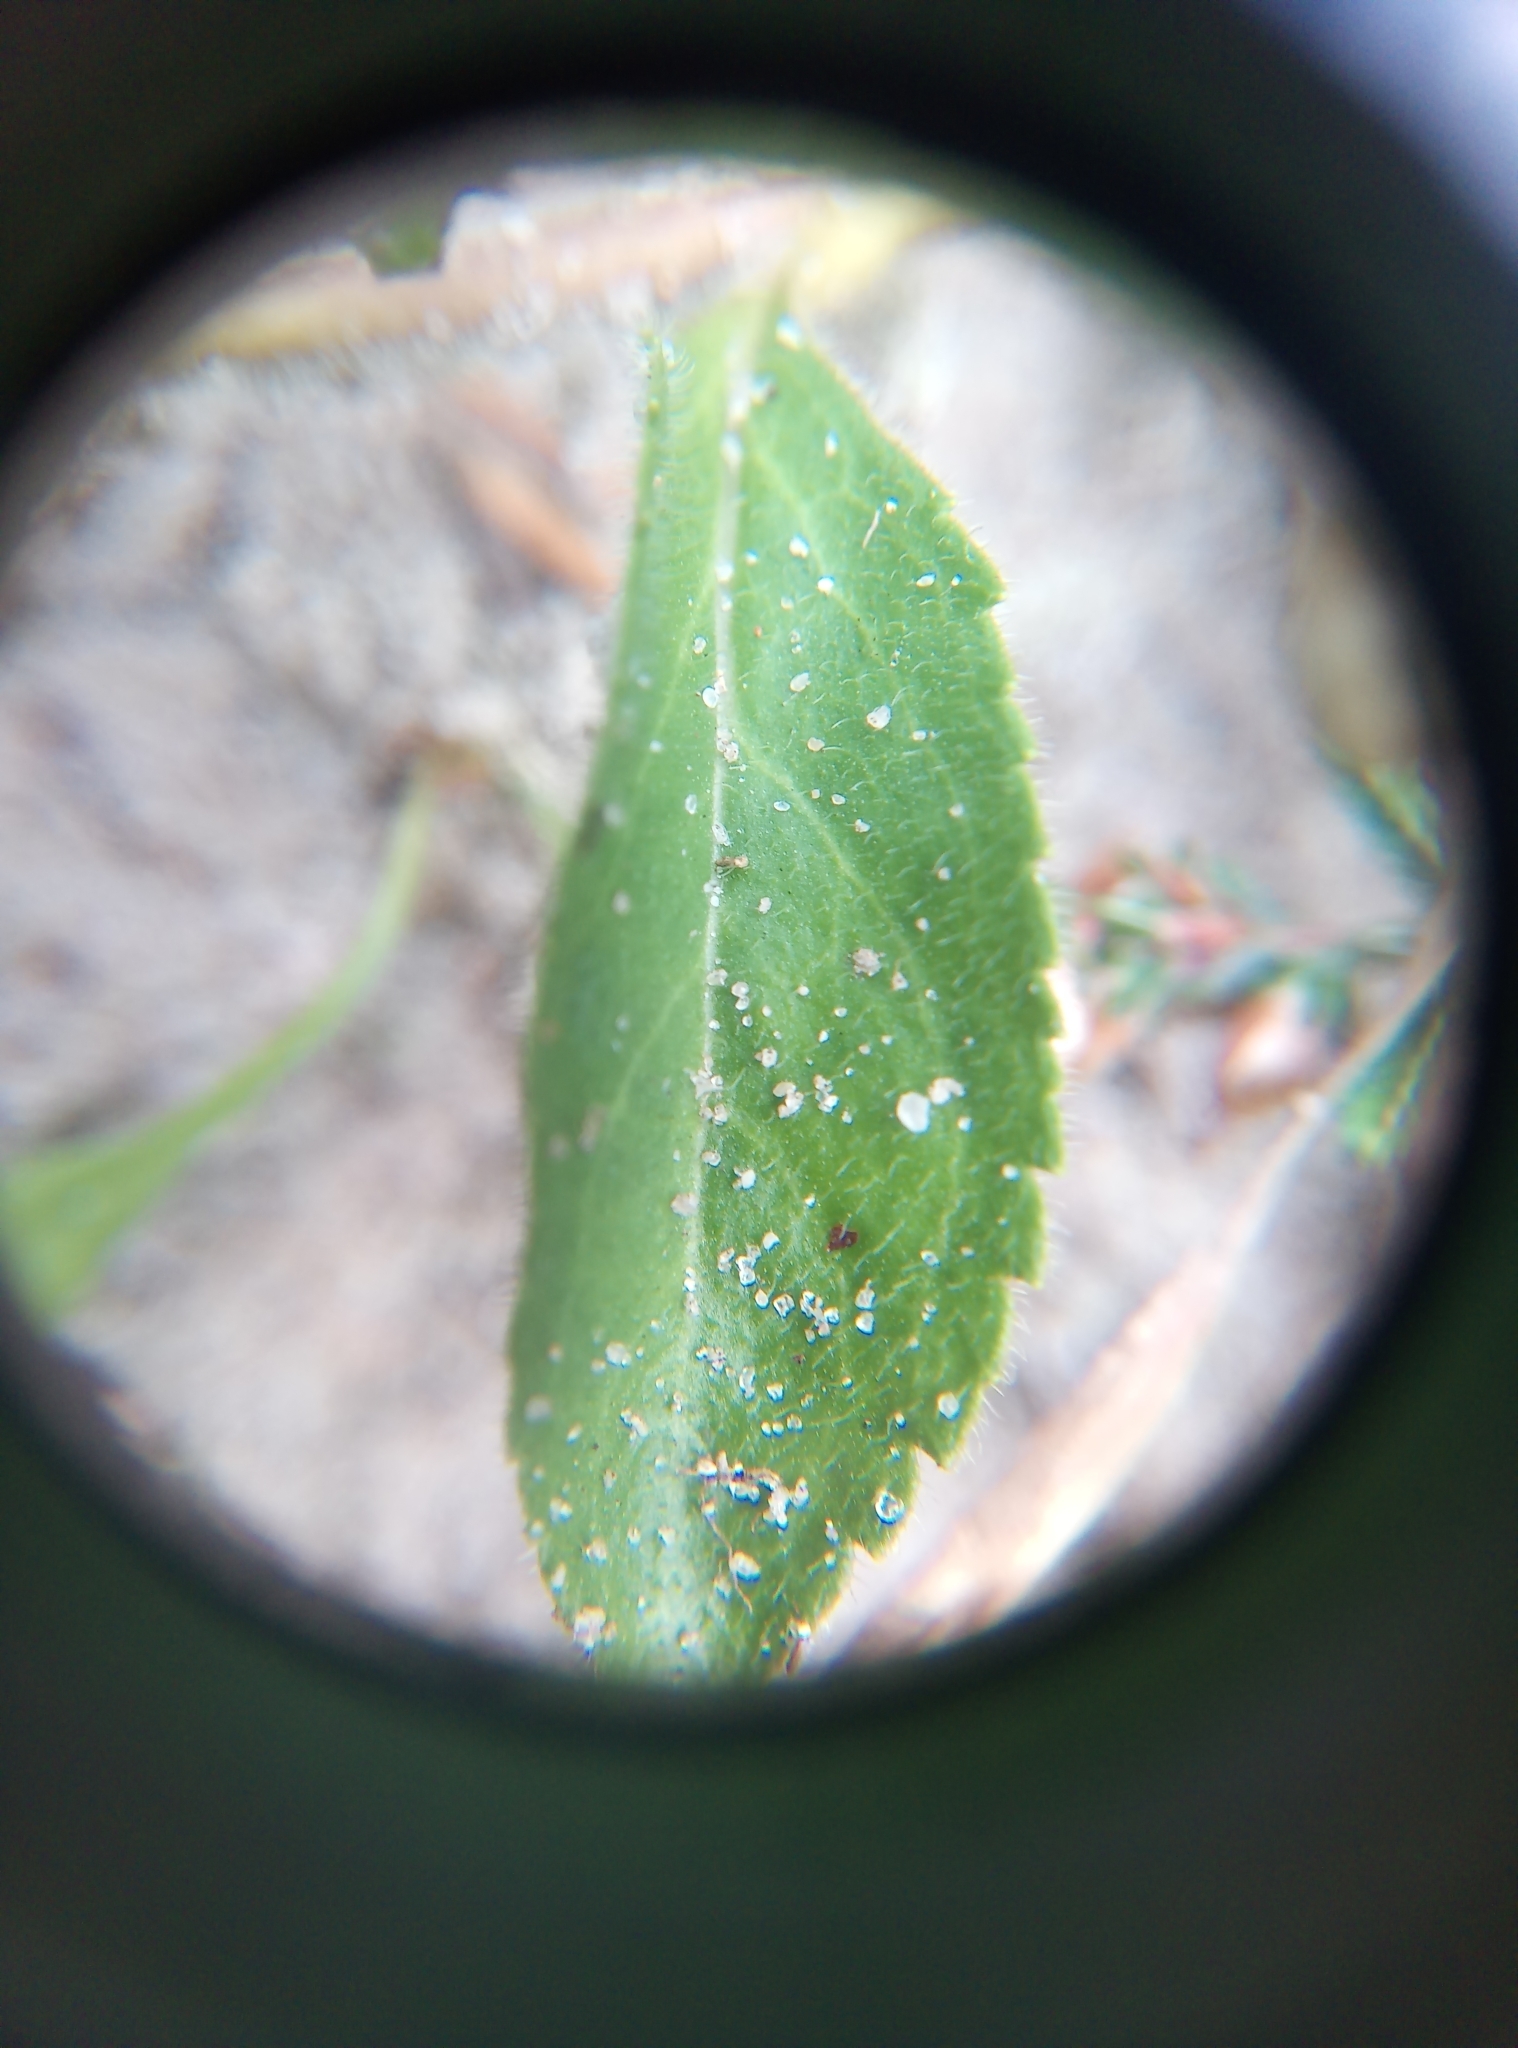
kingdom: Plantae
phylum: Tracheophyta
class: Magnoliopsida
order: Lamiales
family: Plantaginaceae
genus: Veronica
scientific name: Veronica officinalis
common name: Common speedwell
